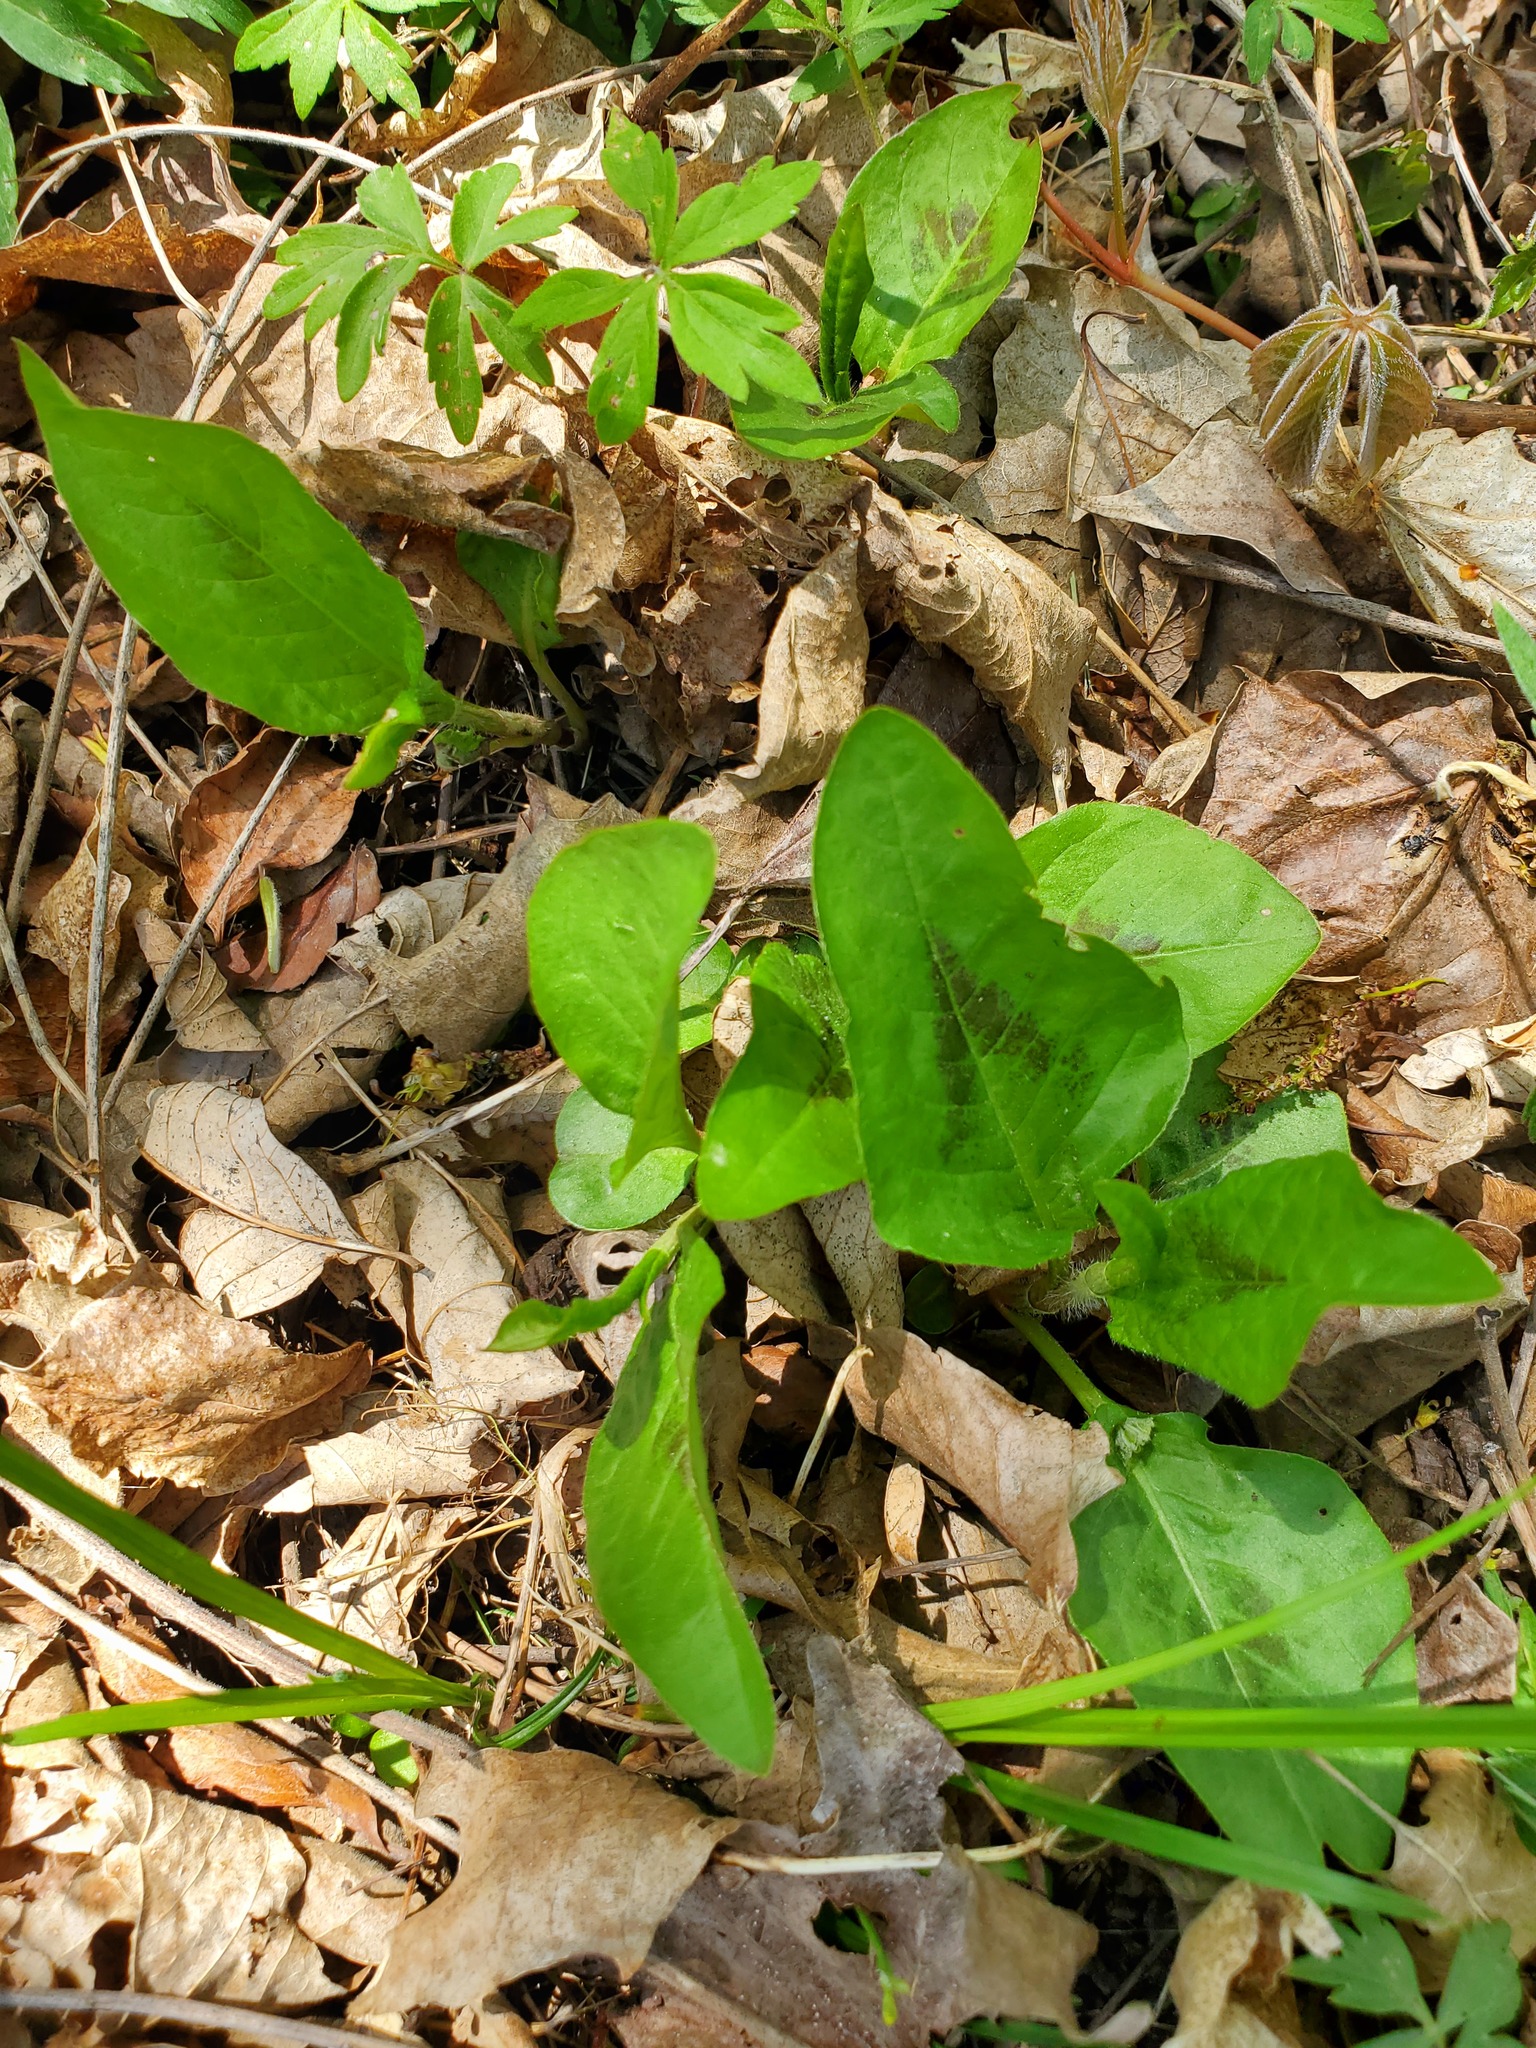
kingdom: Plantae
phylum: Tracheophyta
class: Magnoliopsida
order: Caryophyllales
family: Polygonaceae
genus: Persicaria
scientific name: Persicaria virginiana
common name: Jumpseed
